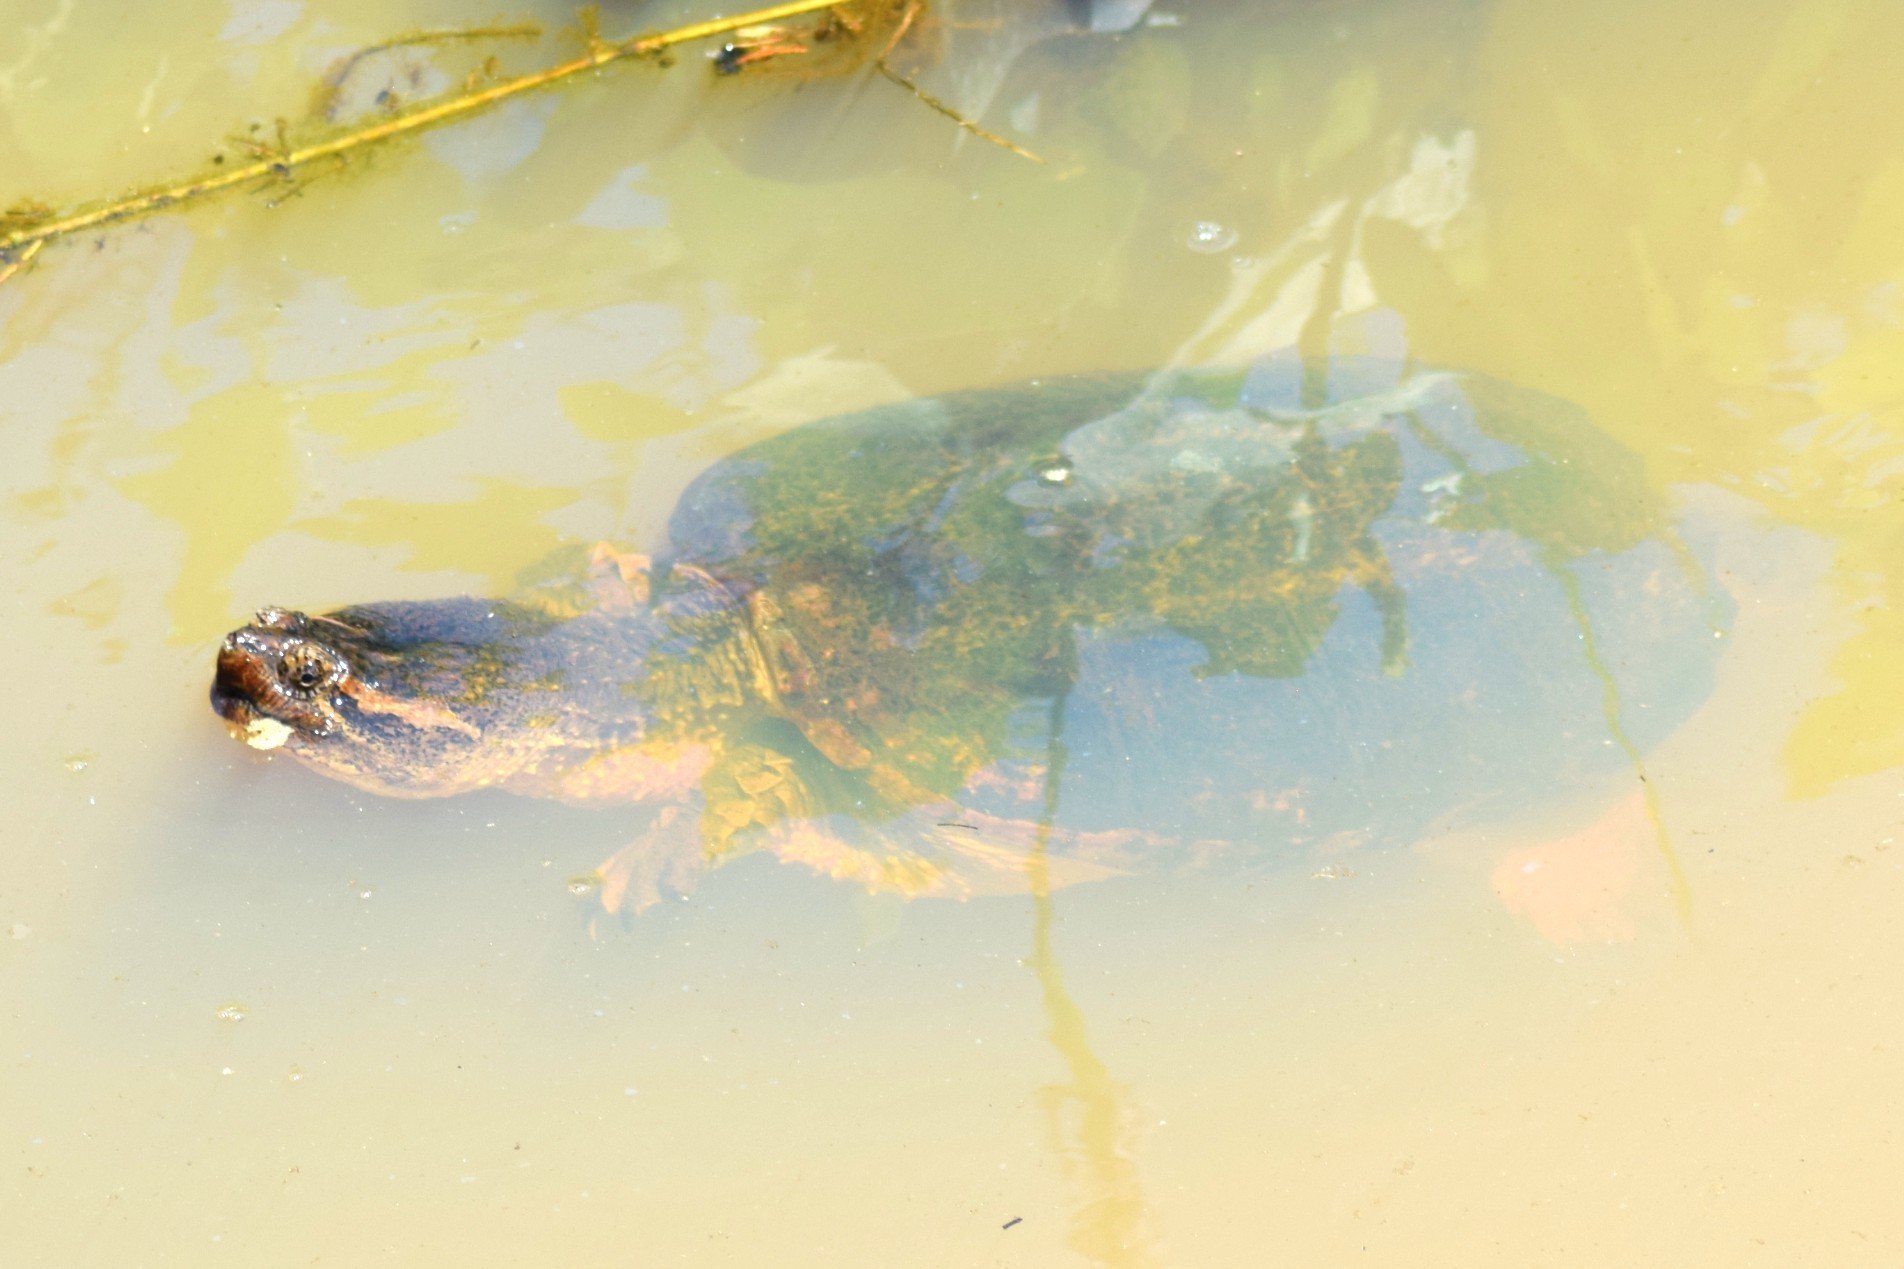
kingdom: Animalia
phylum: Chordata
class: Testudines
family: Chelydridae
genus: Chelydra
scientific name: Chelydra serpentina
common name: Common snapping turtle
